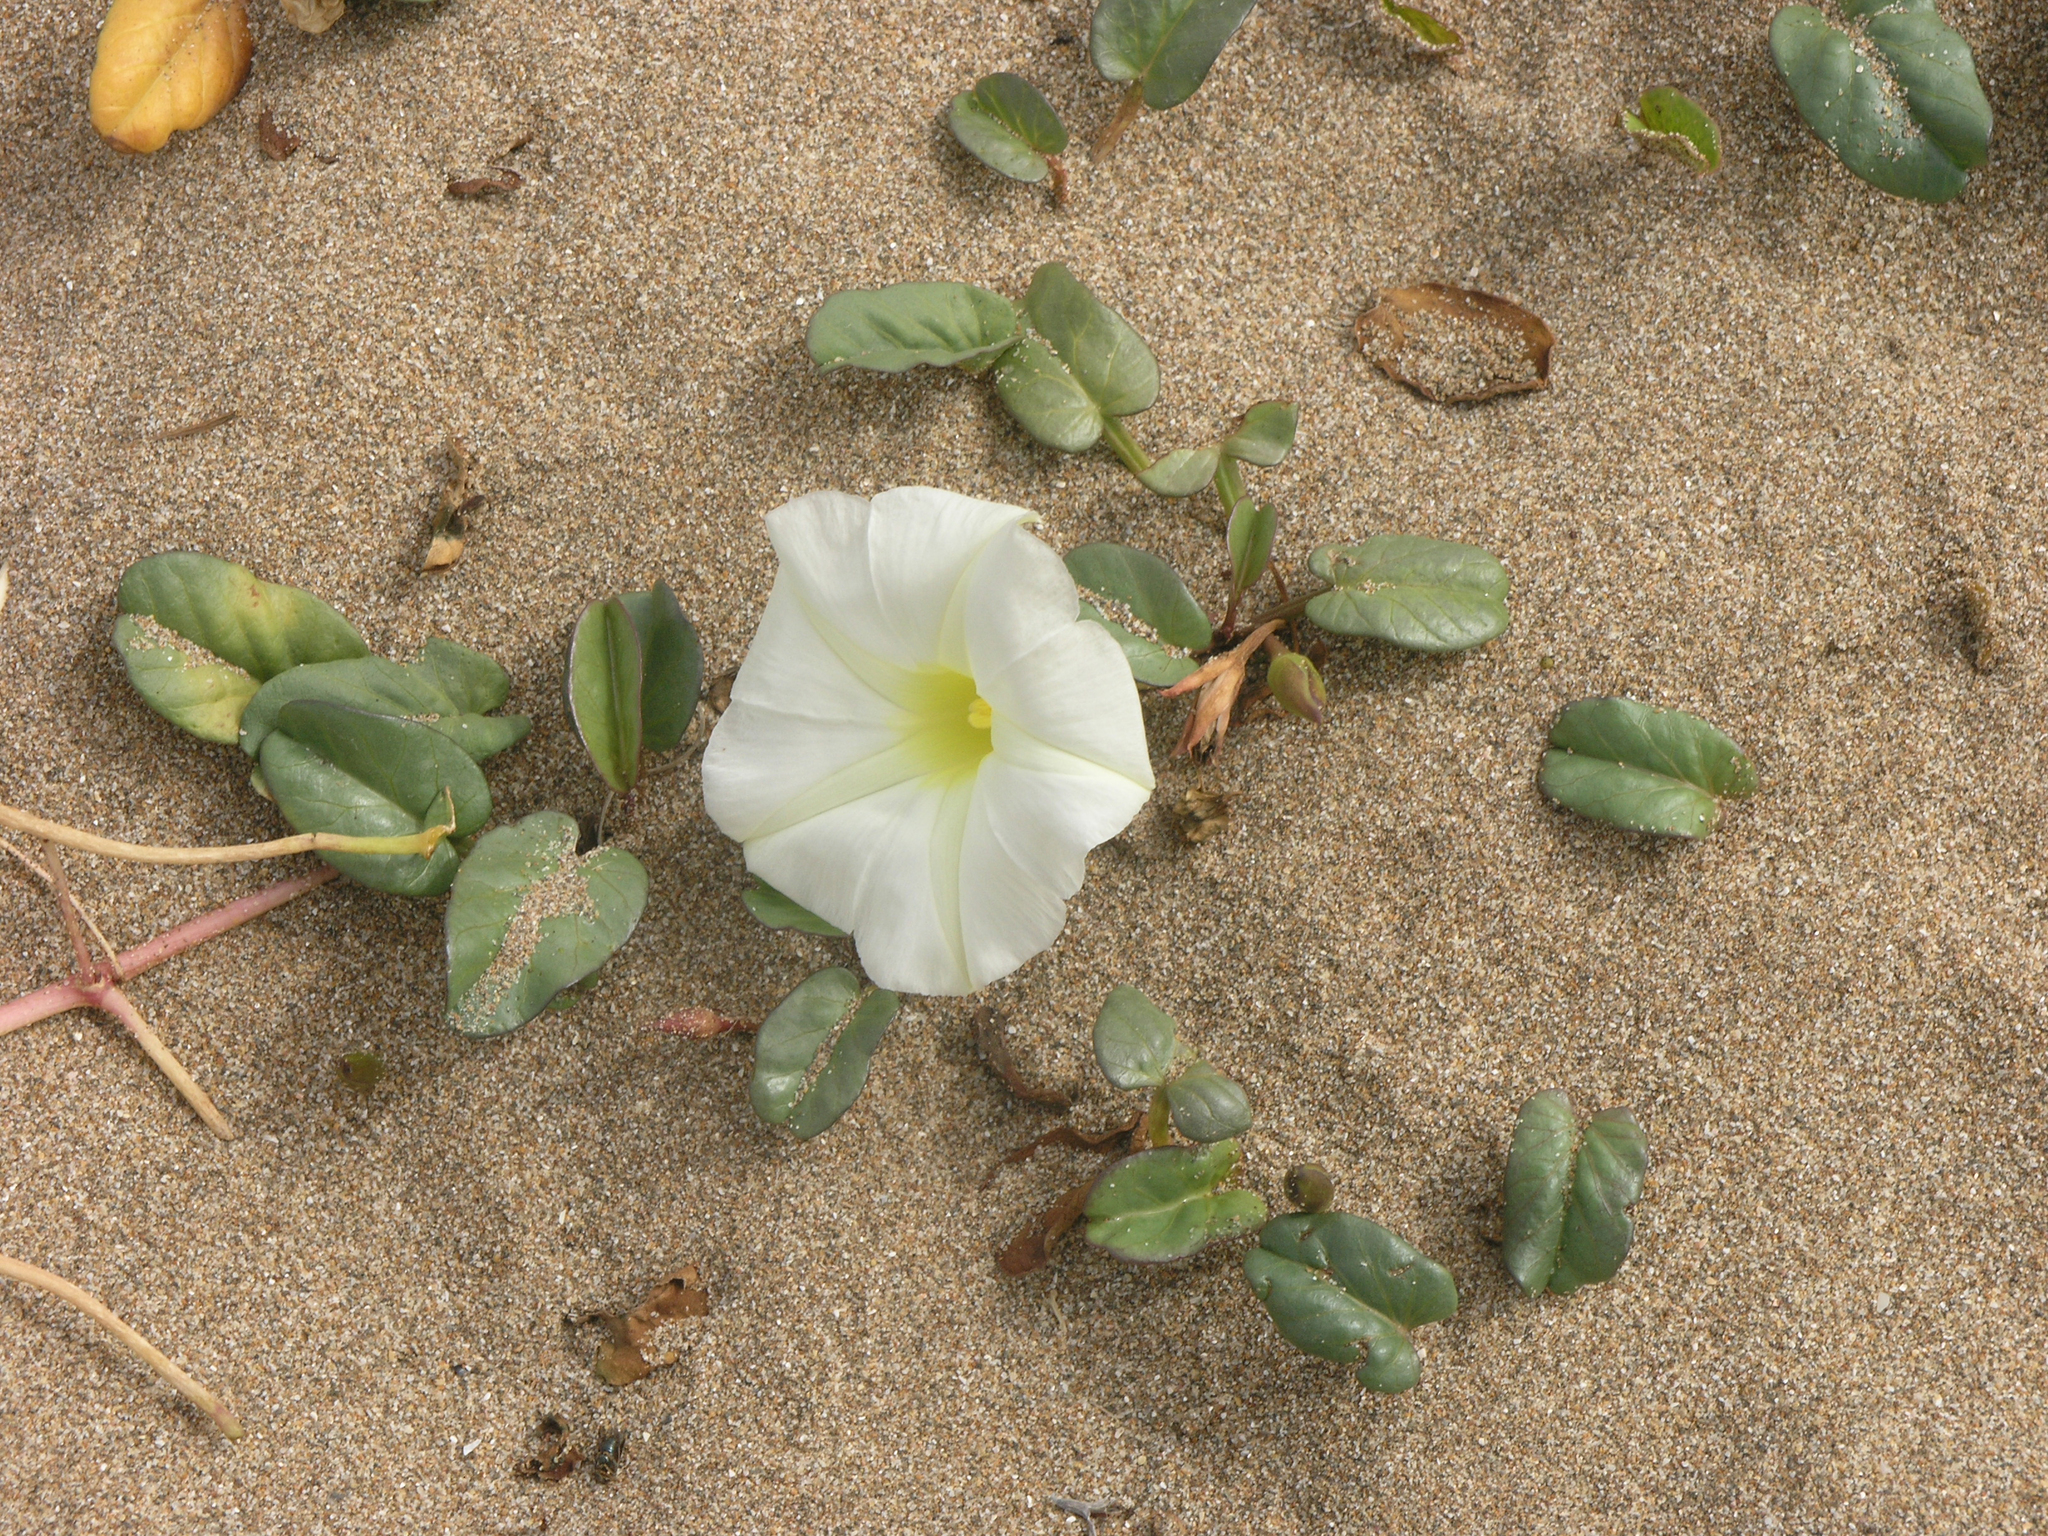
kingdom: Plantae
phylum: Tracheophyta
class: Magnoliopsida
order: Solanales
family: Convolvulaceae
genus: Ipomoea
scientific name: Ipomoea imperati
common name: Fiddle-leaf morning-glory
